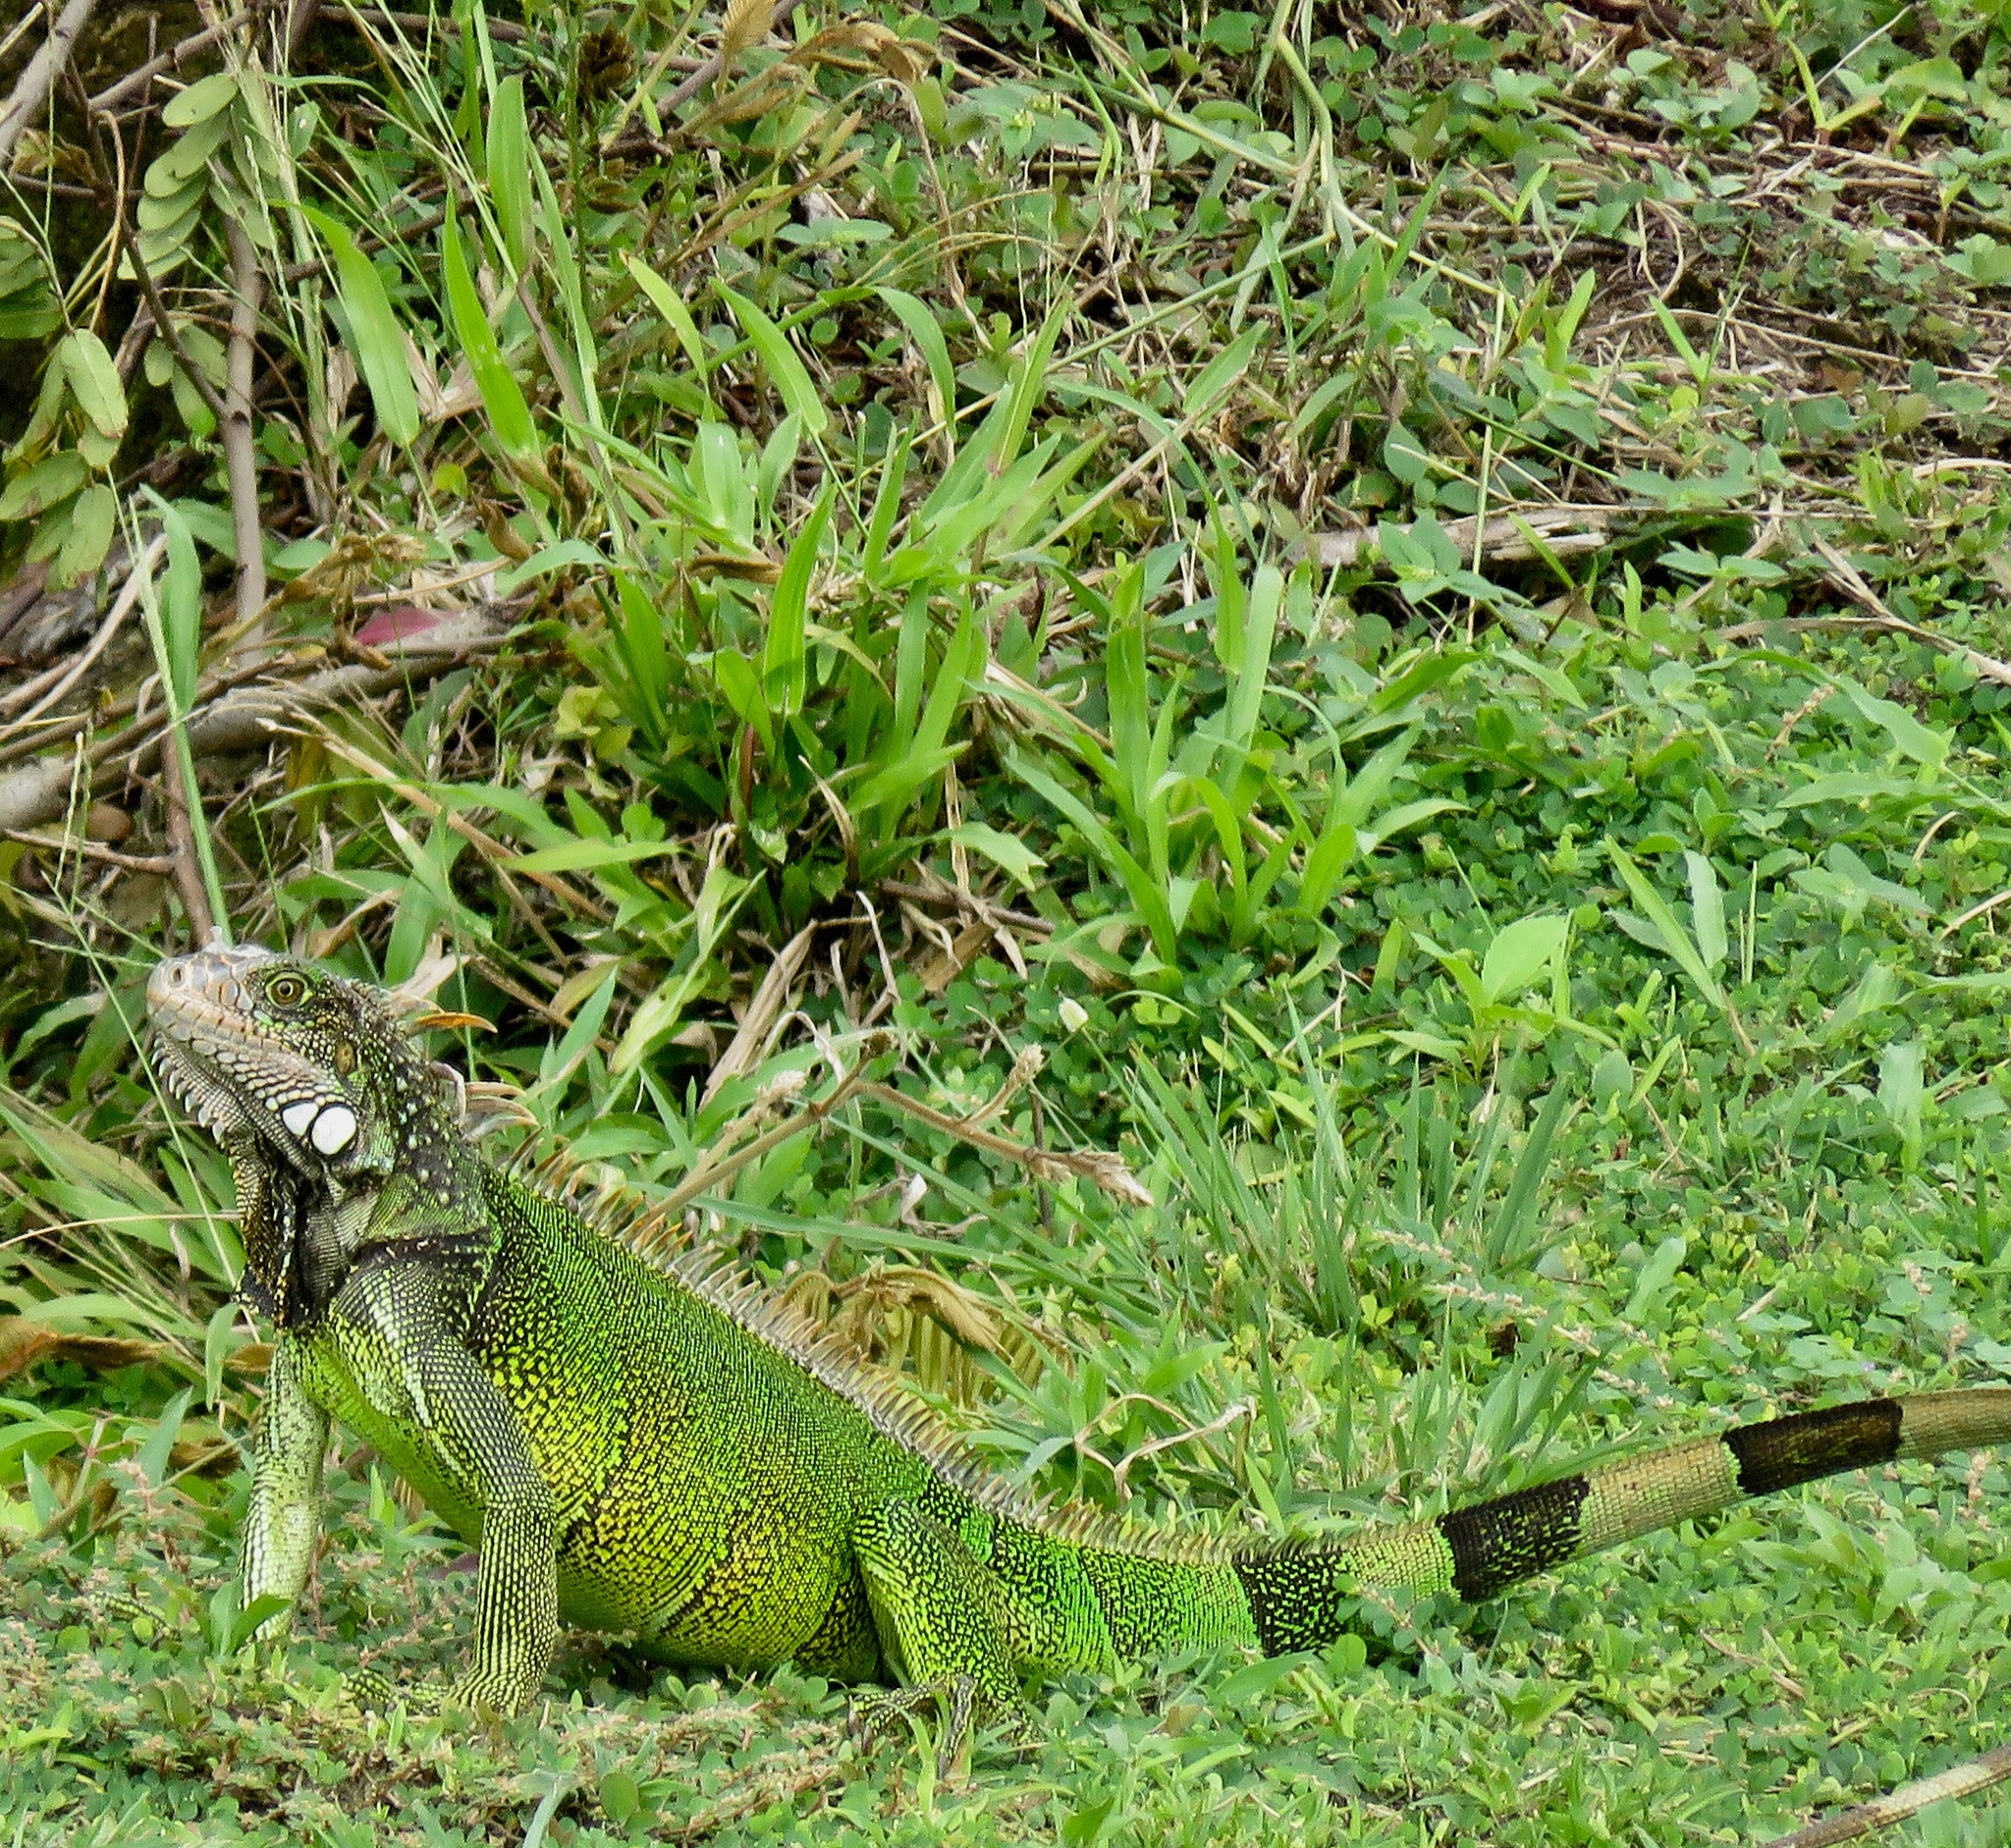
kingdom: Animalia
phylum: Chordata
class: Squamata
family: Iguanidae
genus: Iguana
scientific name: Iguana iguana
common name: Green iguana
